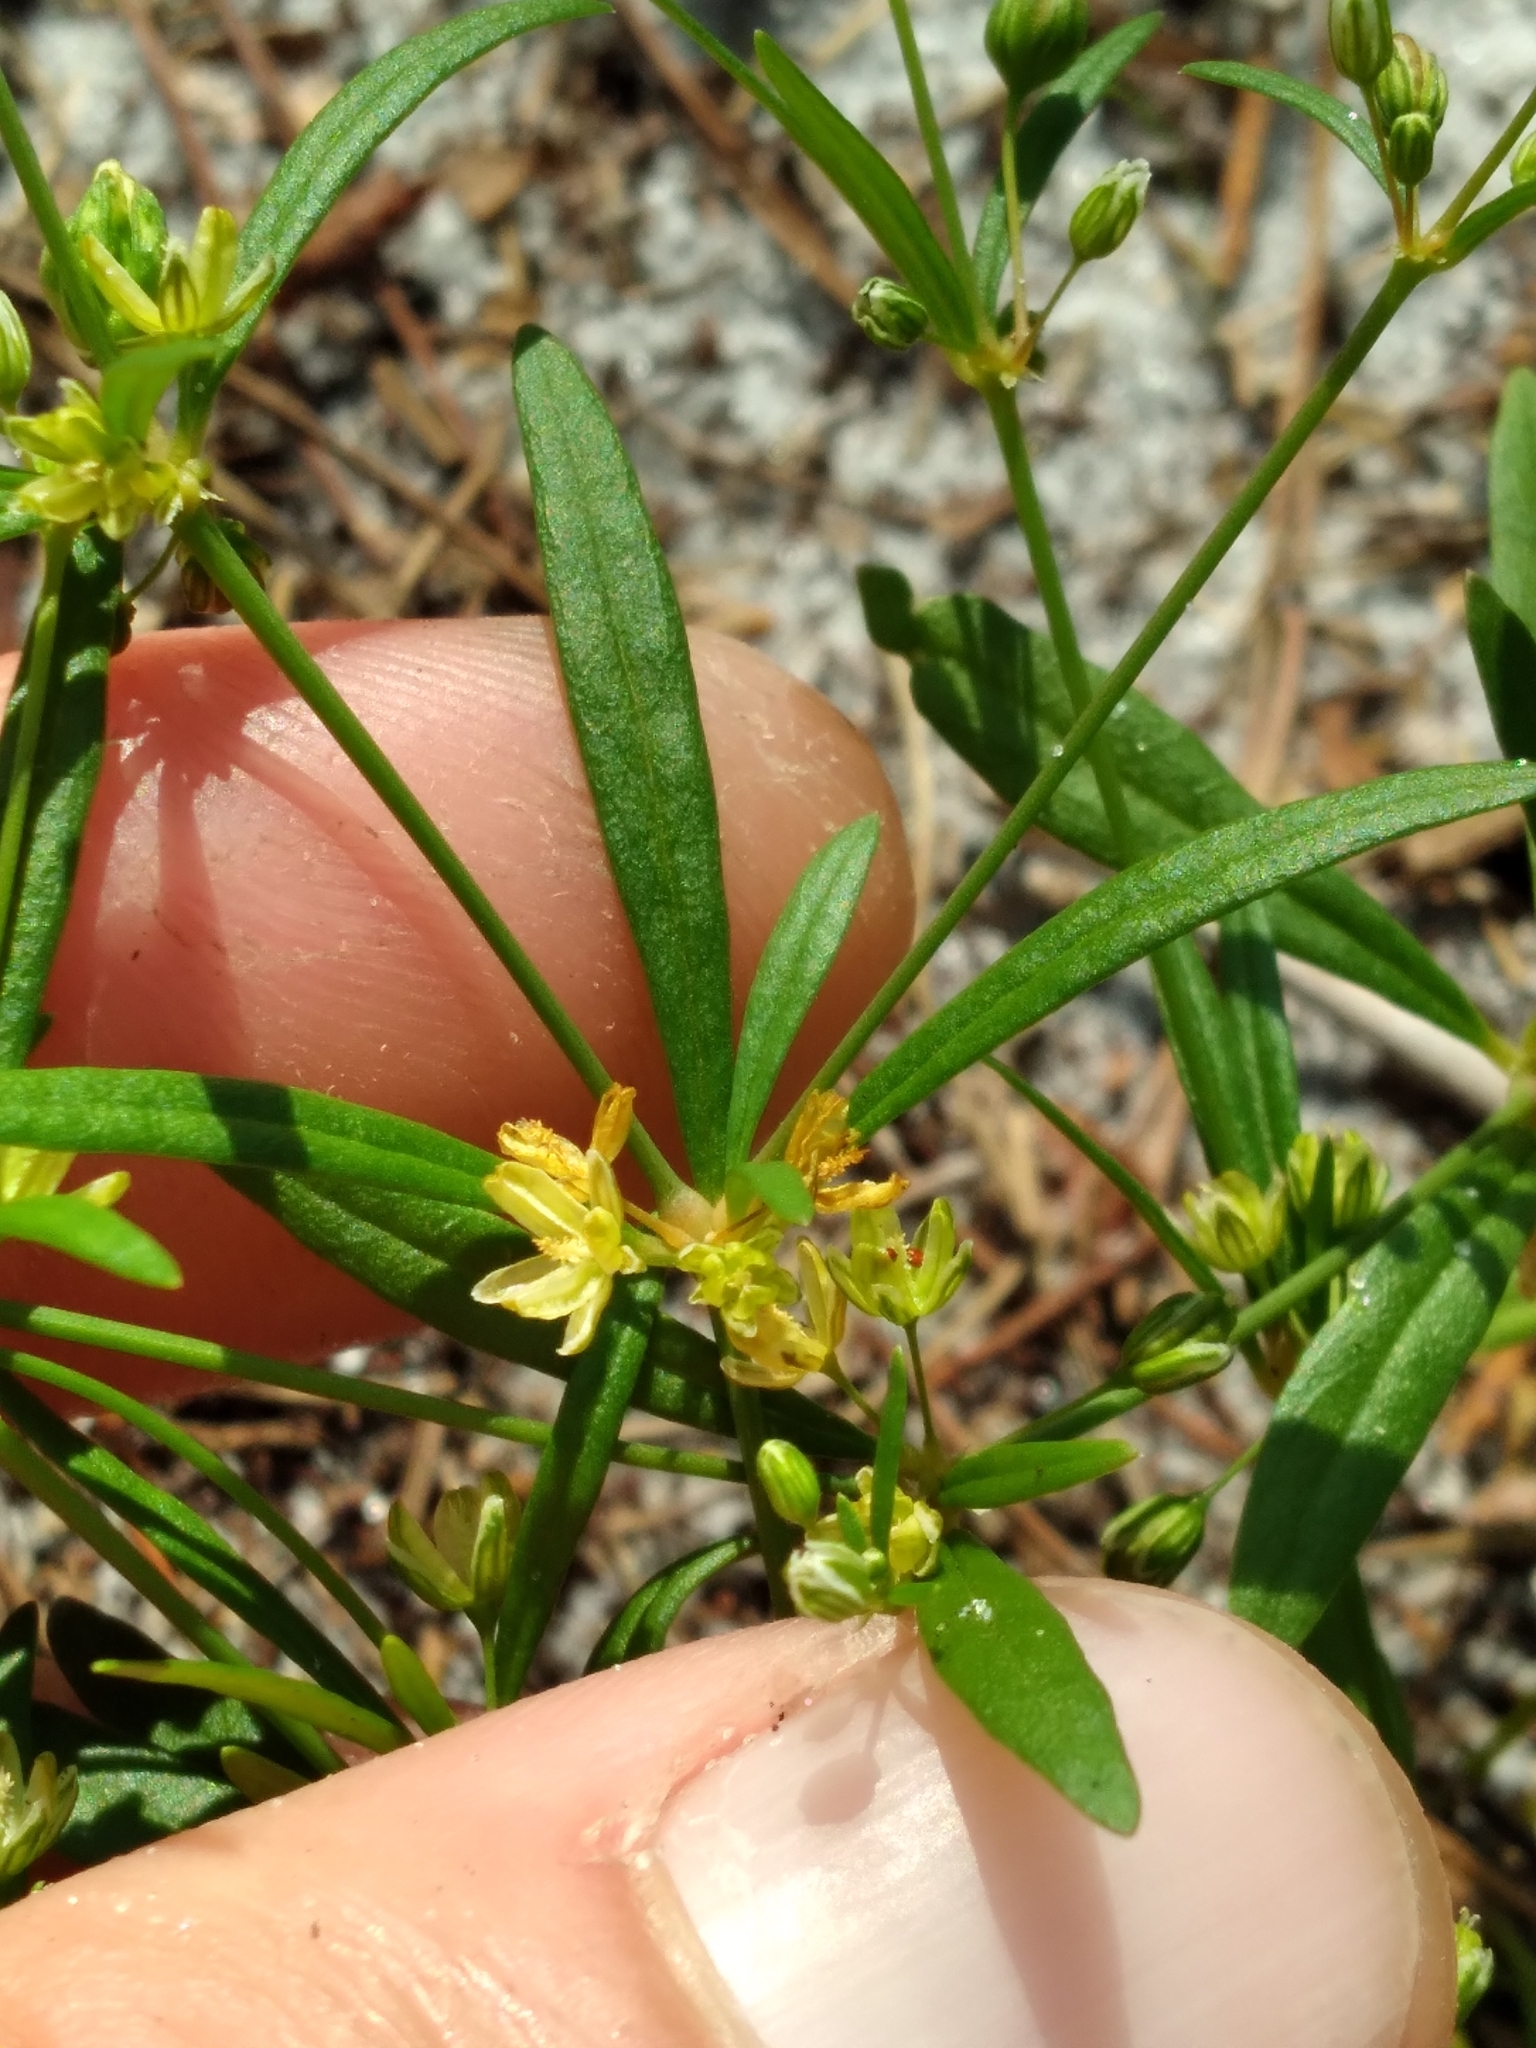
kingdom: Plantae
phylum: Tracheophyta
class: Magnoliopsida
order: Caryophyllales
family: Molluginaceae
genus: Mollugo
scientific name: Mollugo verticillata
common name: Green carpetweed
